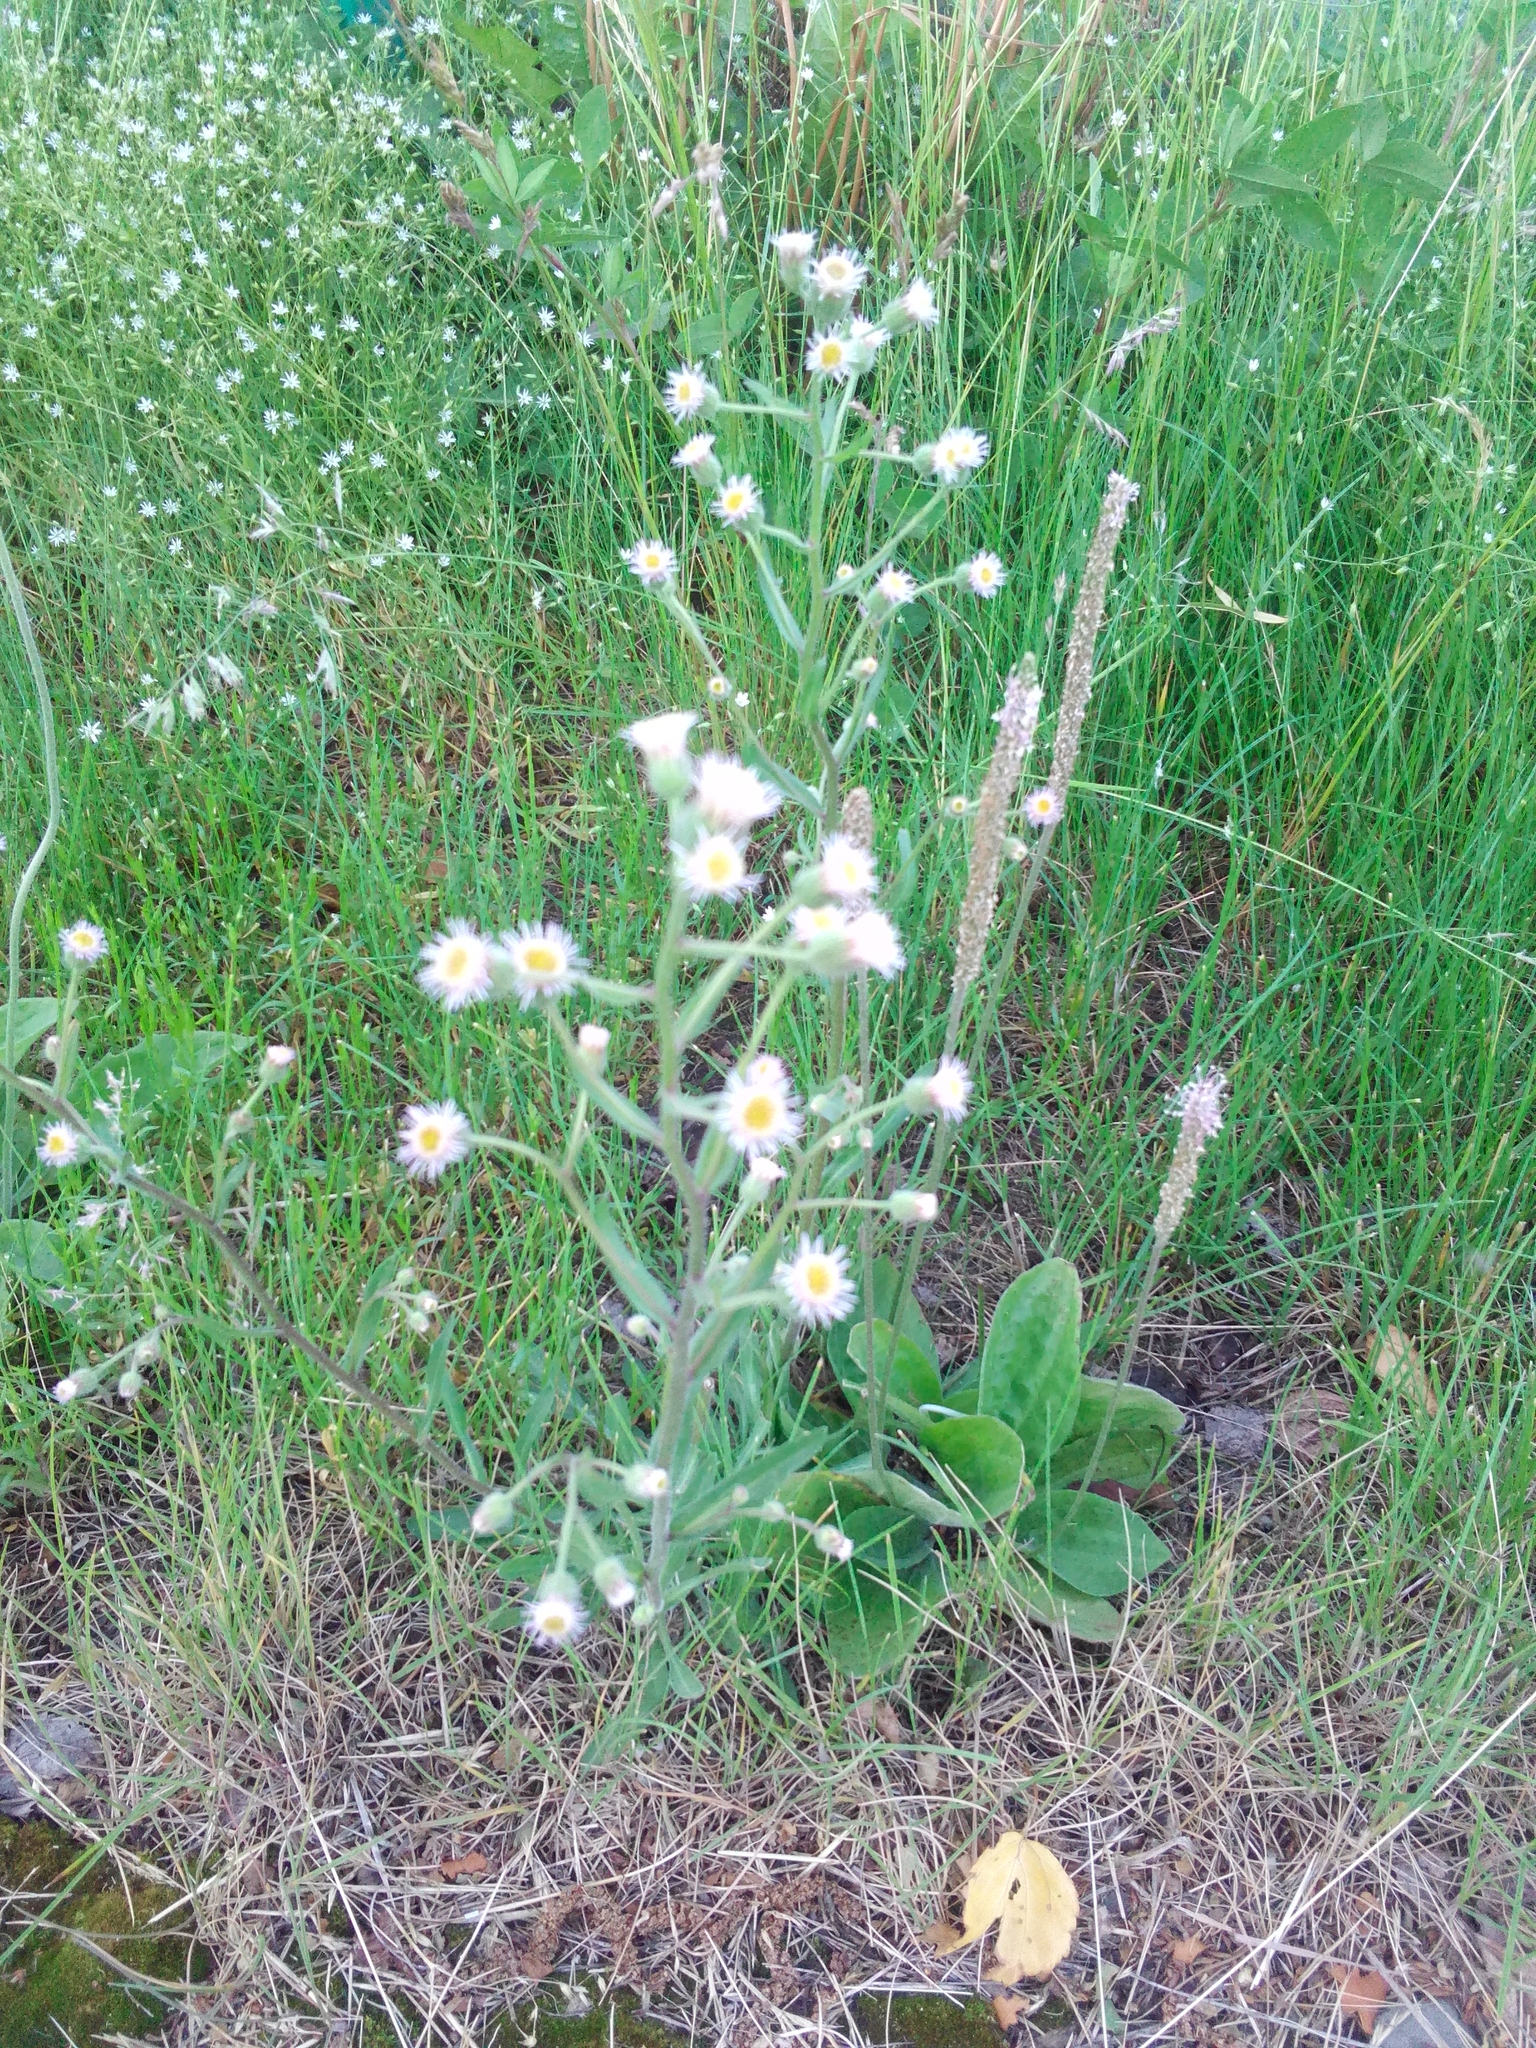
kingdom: Plantae
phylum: Tracheophyta
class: Magnoliopsida
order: Asterales
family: Asteraceae
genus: Erigeron
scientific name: Erigeron acris
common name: Blue fleabane
